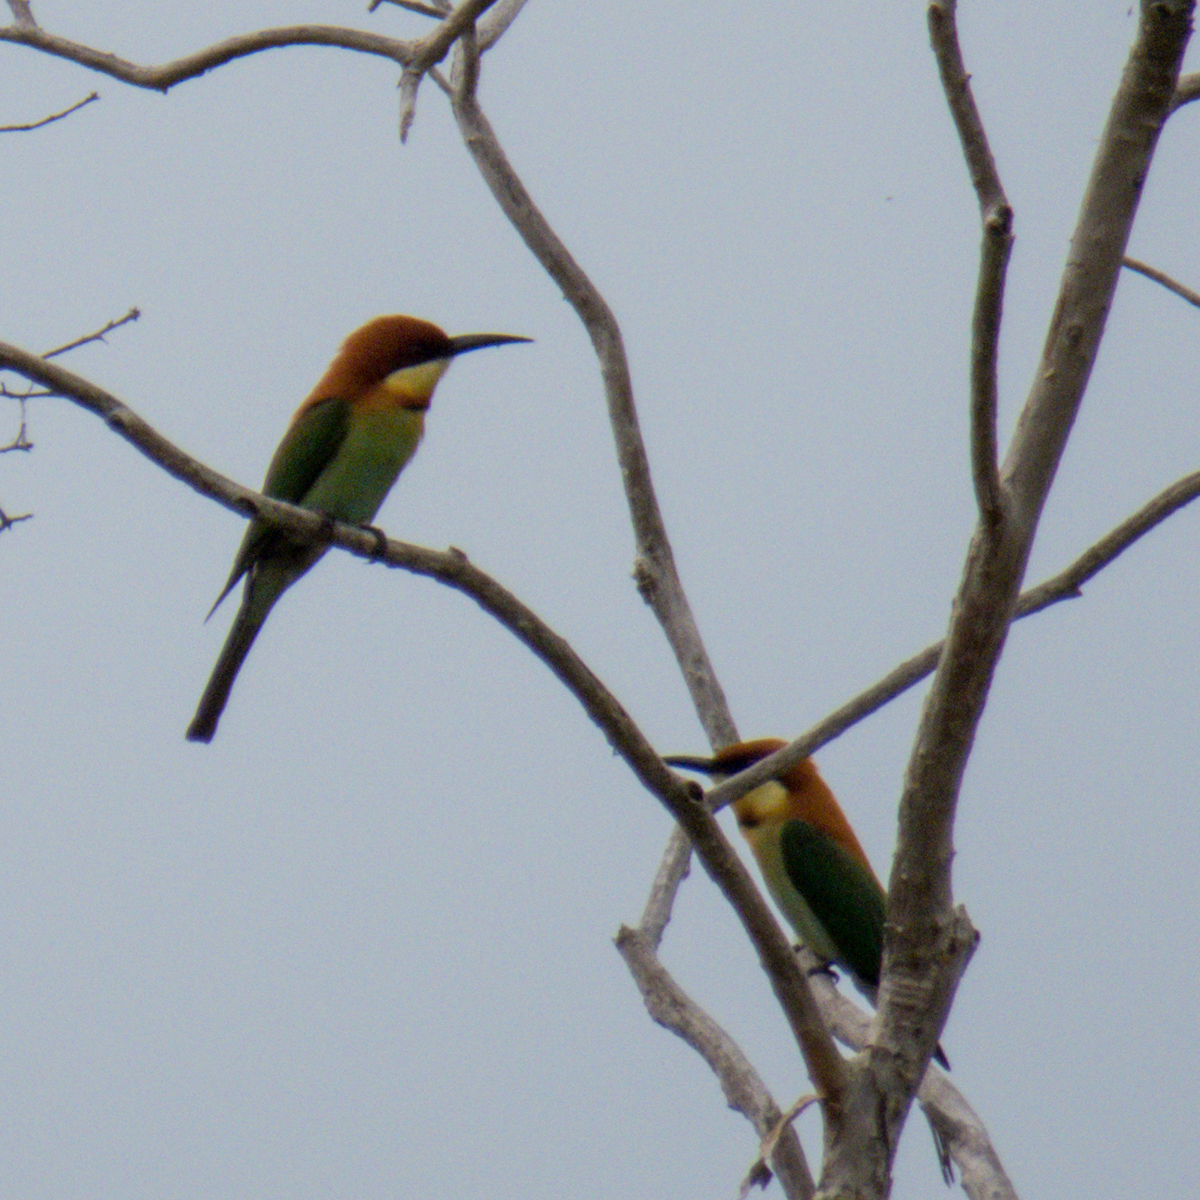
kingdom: Animalia
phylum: Chordata
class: Aves
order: Coraciiformes
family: Meropidae
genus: Merops
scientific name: Merops leschenaulti
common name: Chestnut-headed bee-eater
